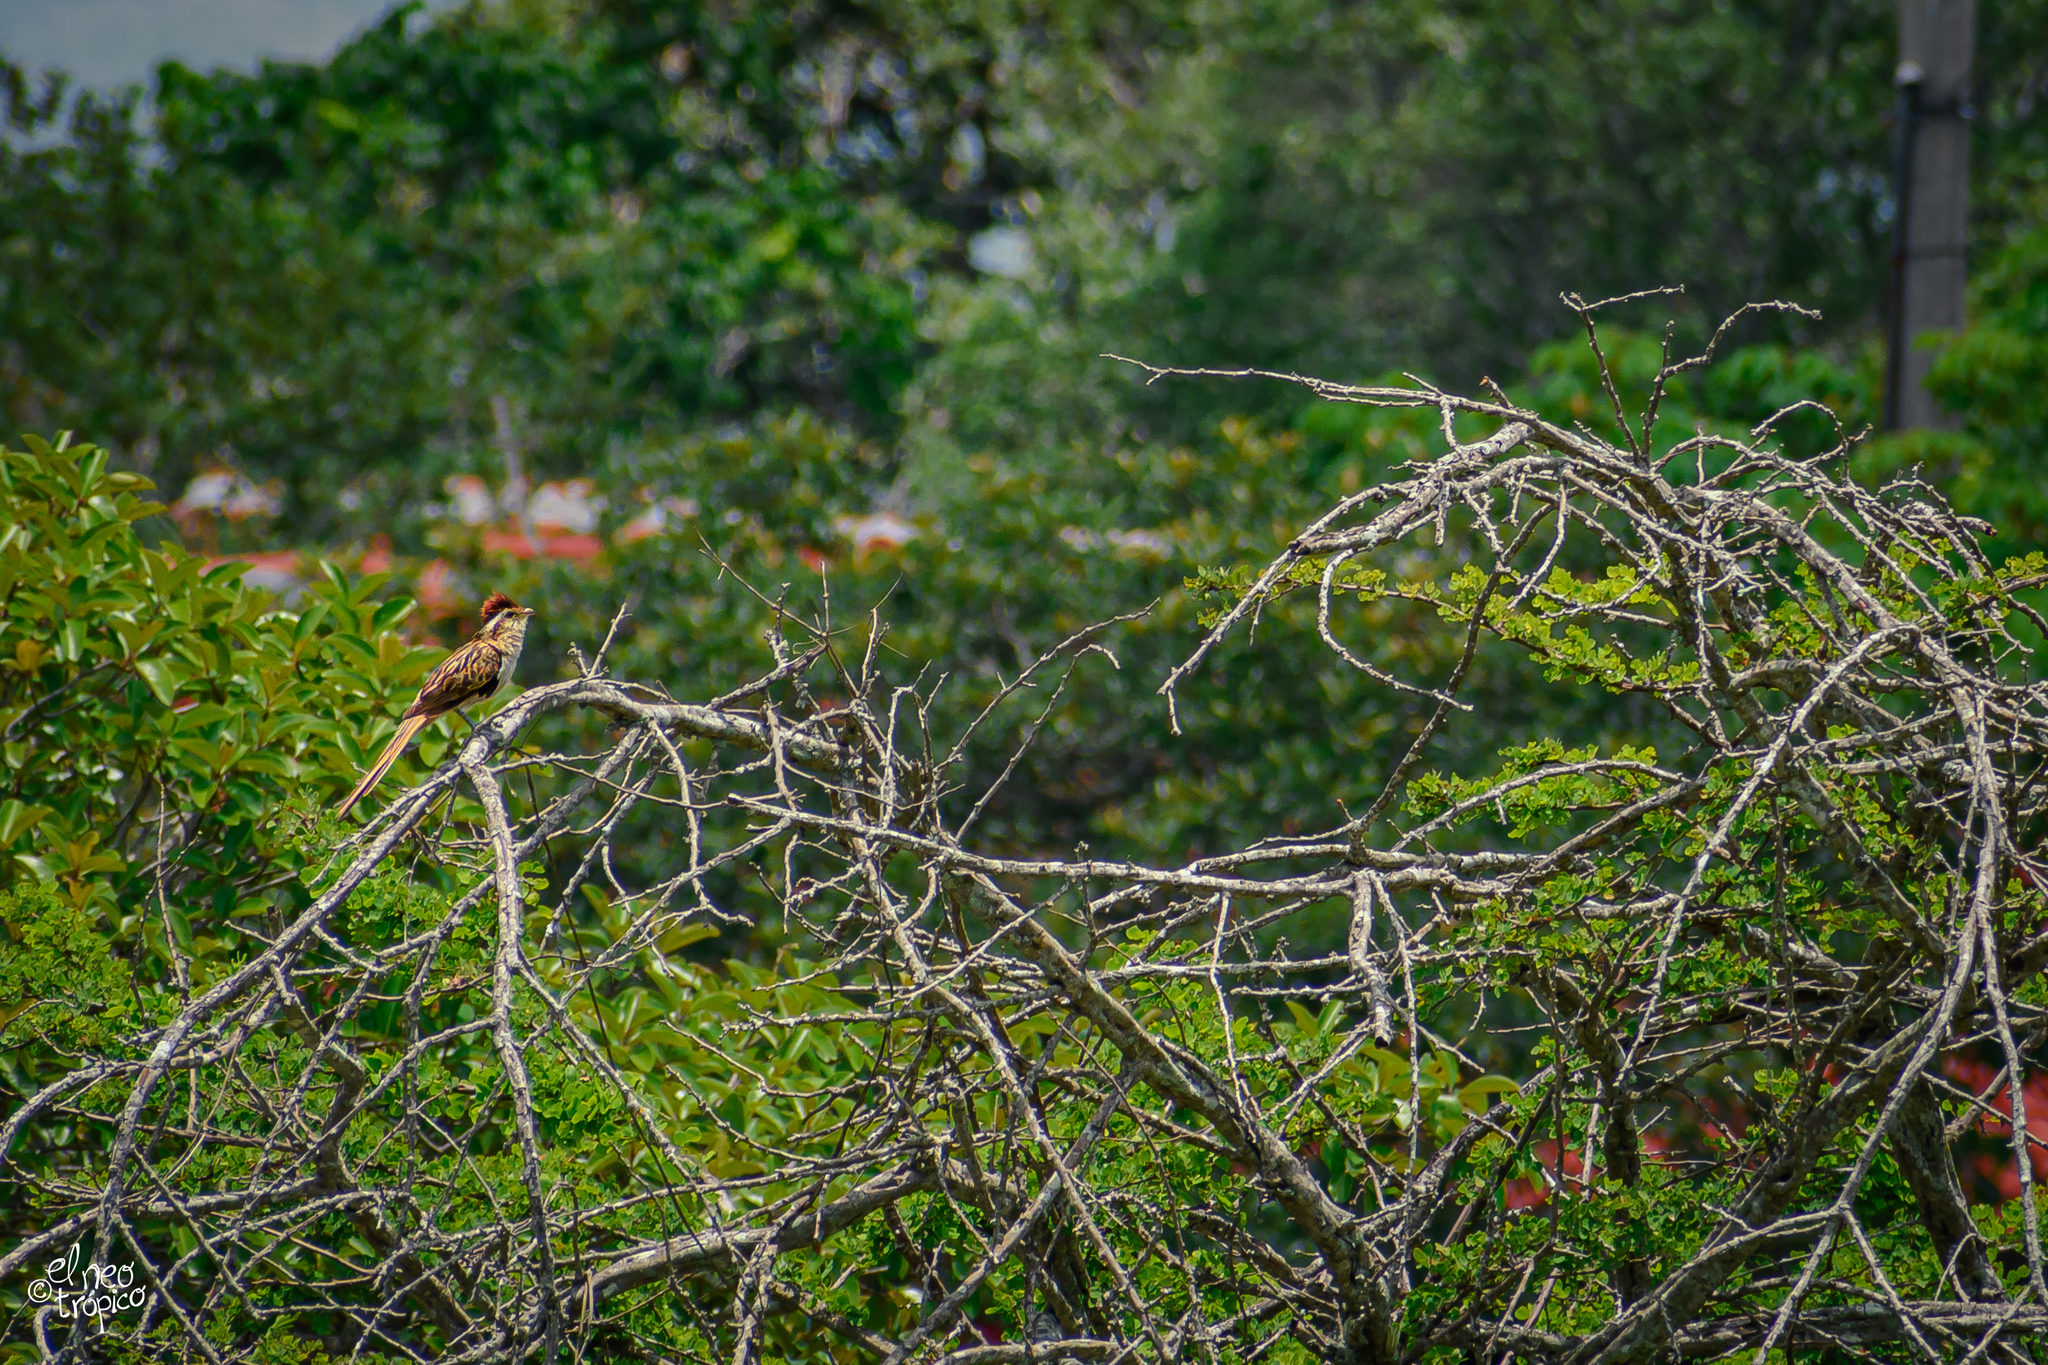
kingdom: Animalia
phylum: Chordata
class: Aves
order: Cuculiformes
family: Cuculidae
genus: Tapera
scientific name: Tapera naevia
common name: Striped cuckoo
